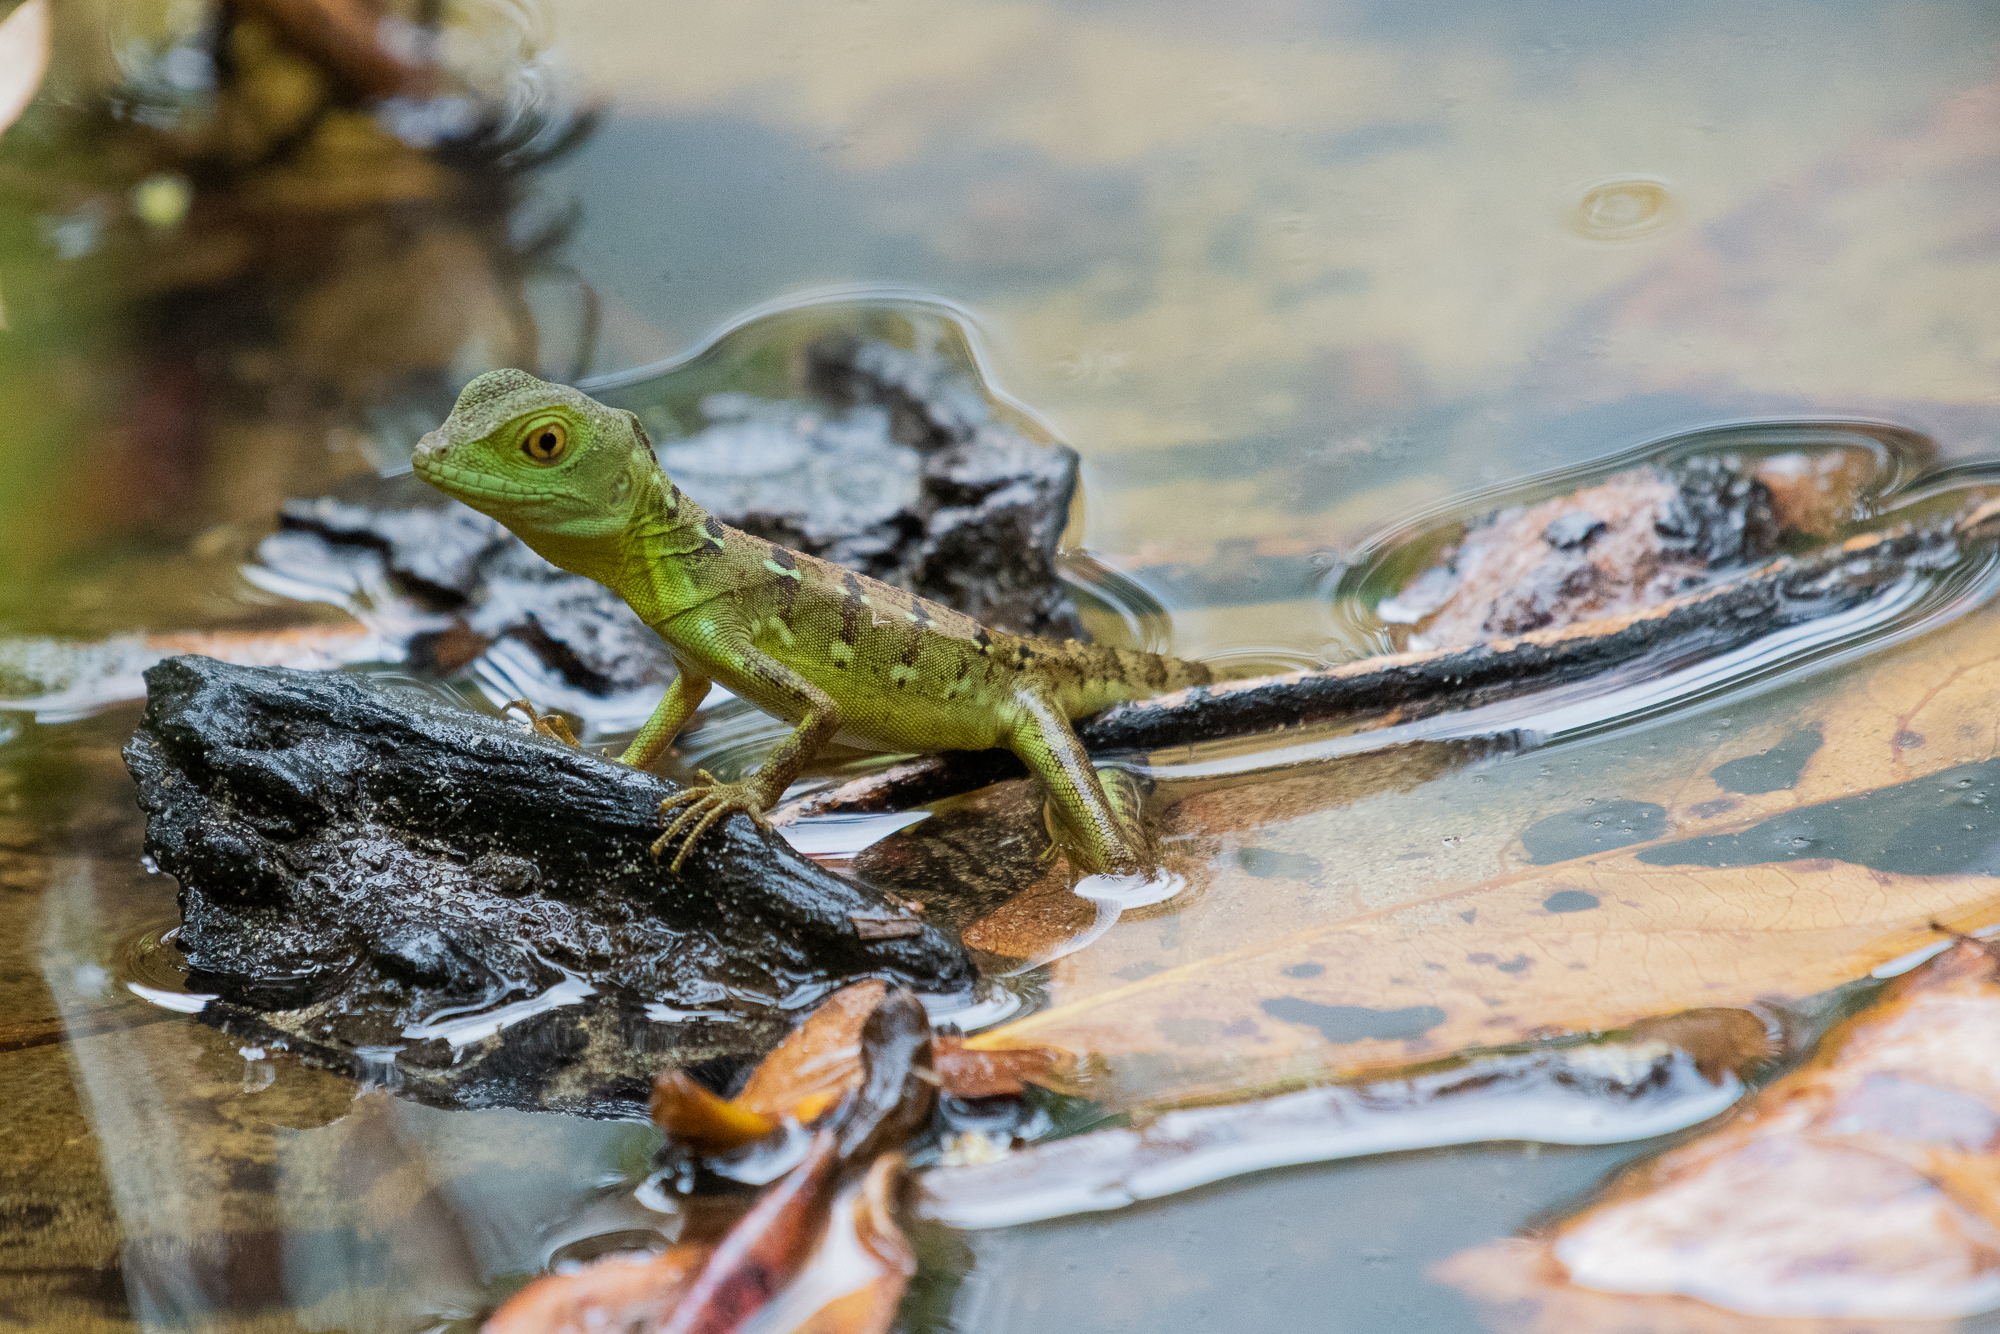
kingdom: Animalia
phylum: Chordata
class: Squamata
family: Corytophanidae
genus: Basiliscus
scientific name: Basiliscus plumifrons
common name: Green basilisk
